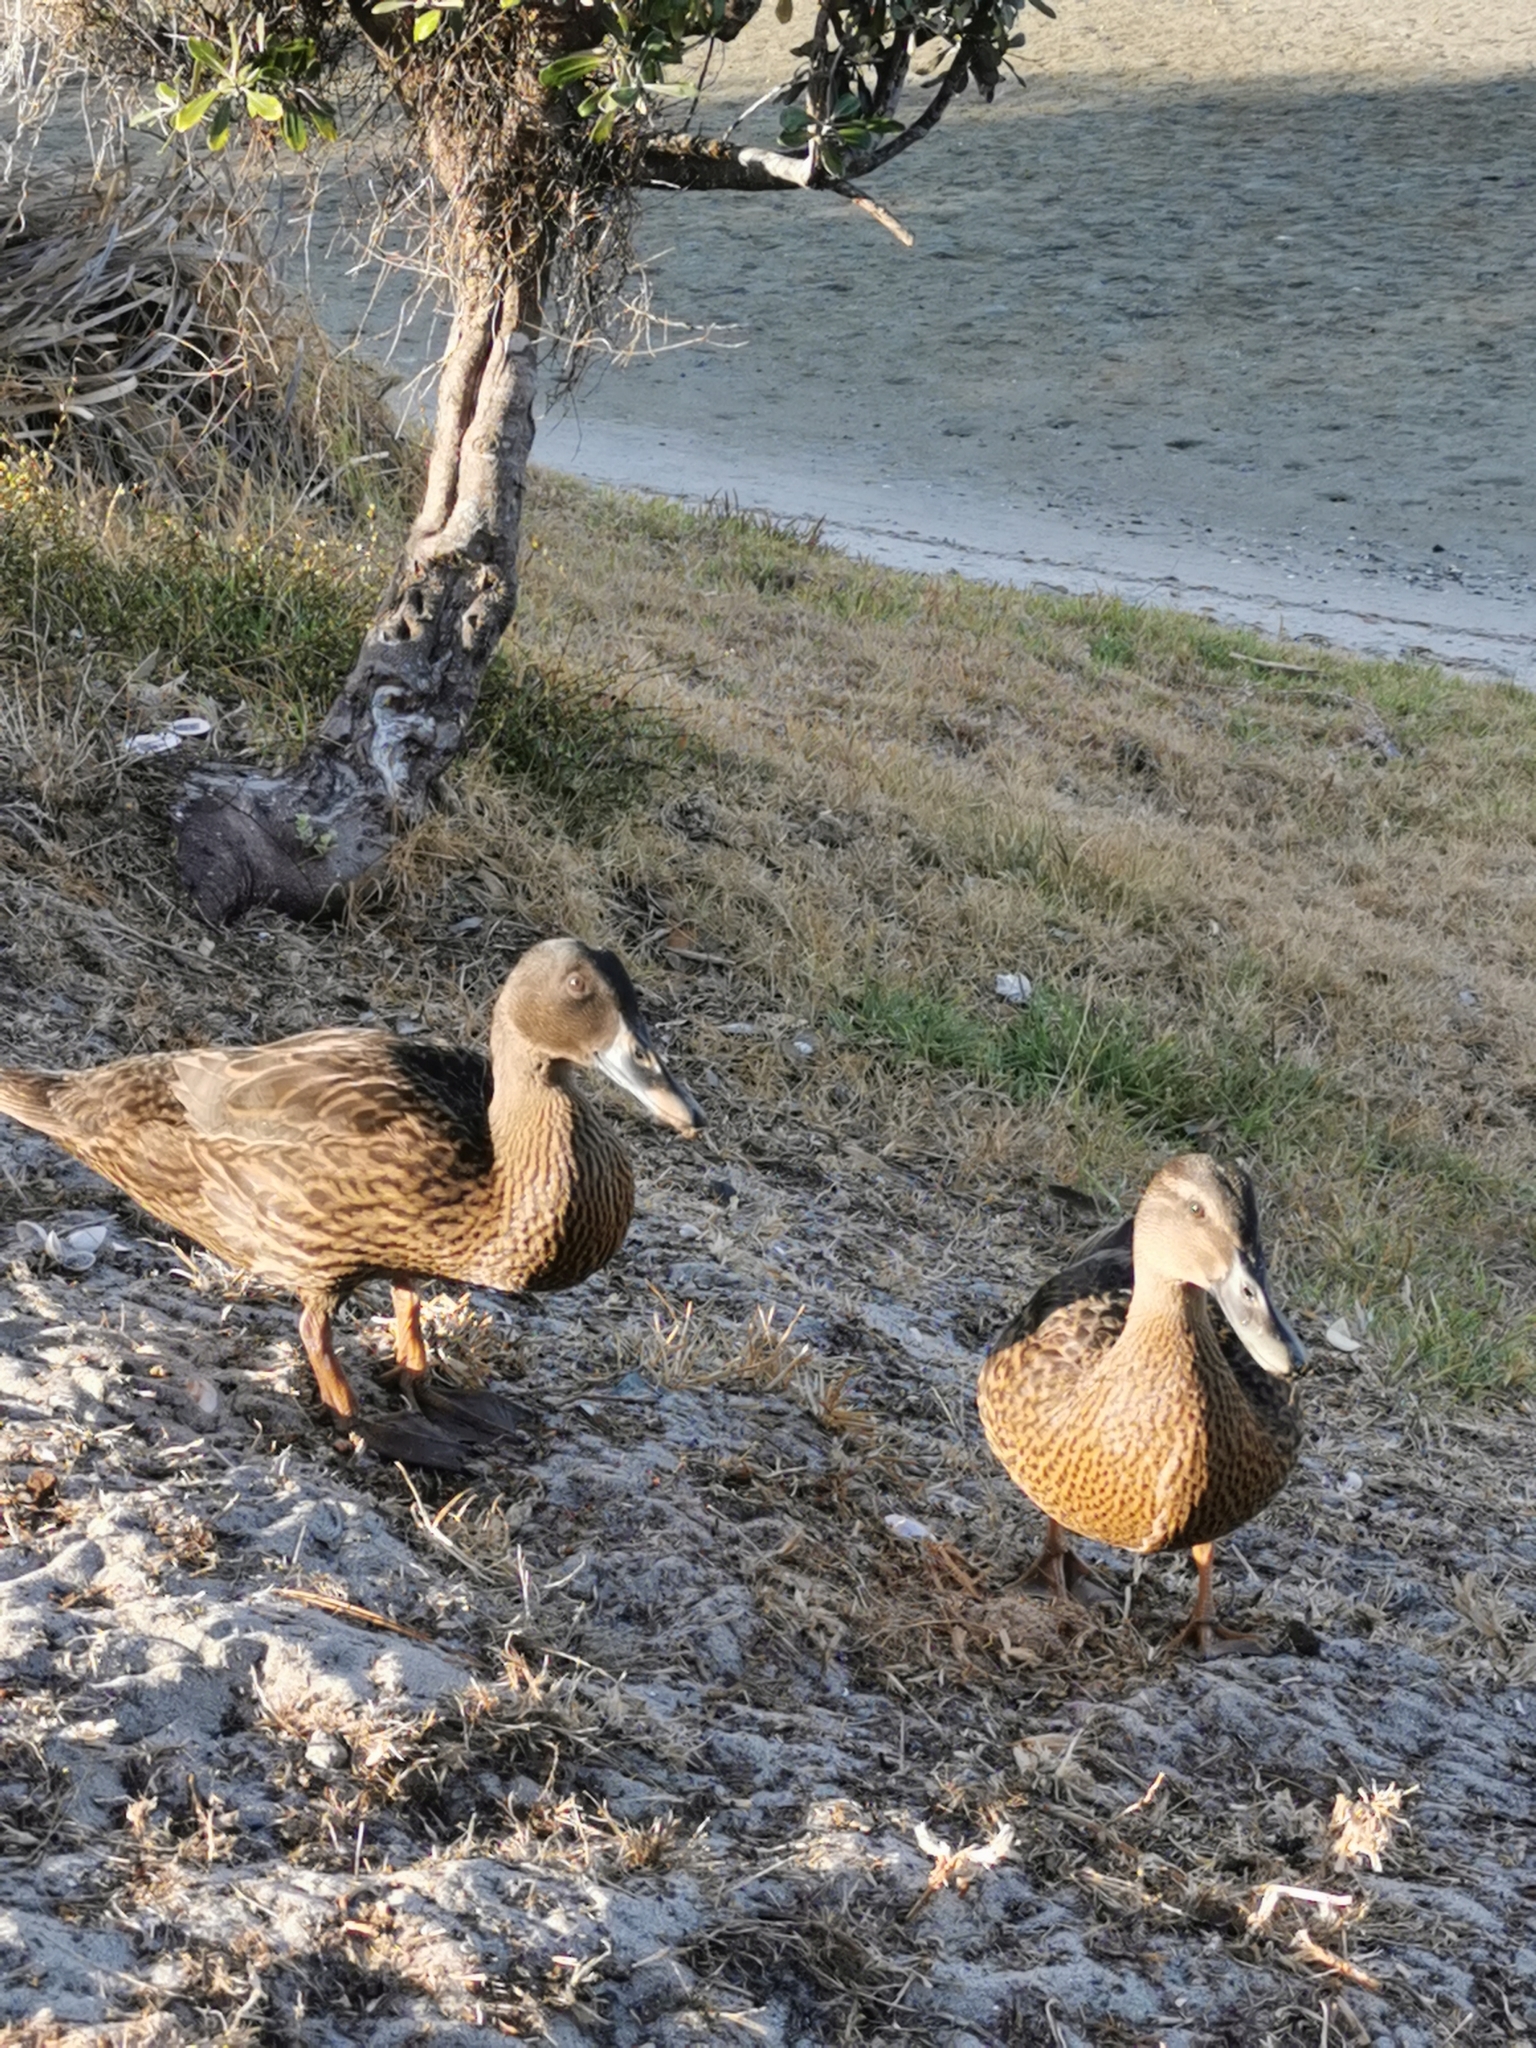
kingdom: Animalia
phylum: Chordata
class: Aves
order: Anseriformes
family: Anatidae
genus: Anas
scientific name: Anas platyrhynchos
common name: Mallard
